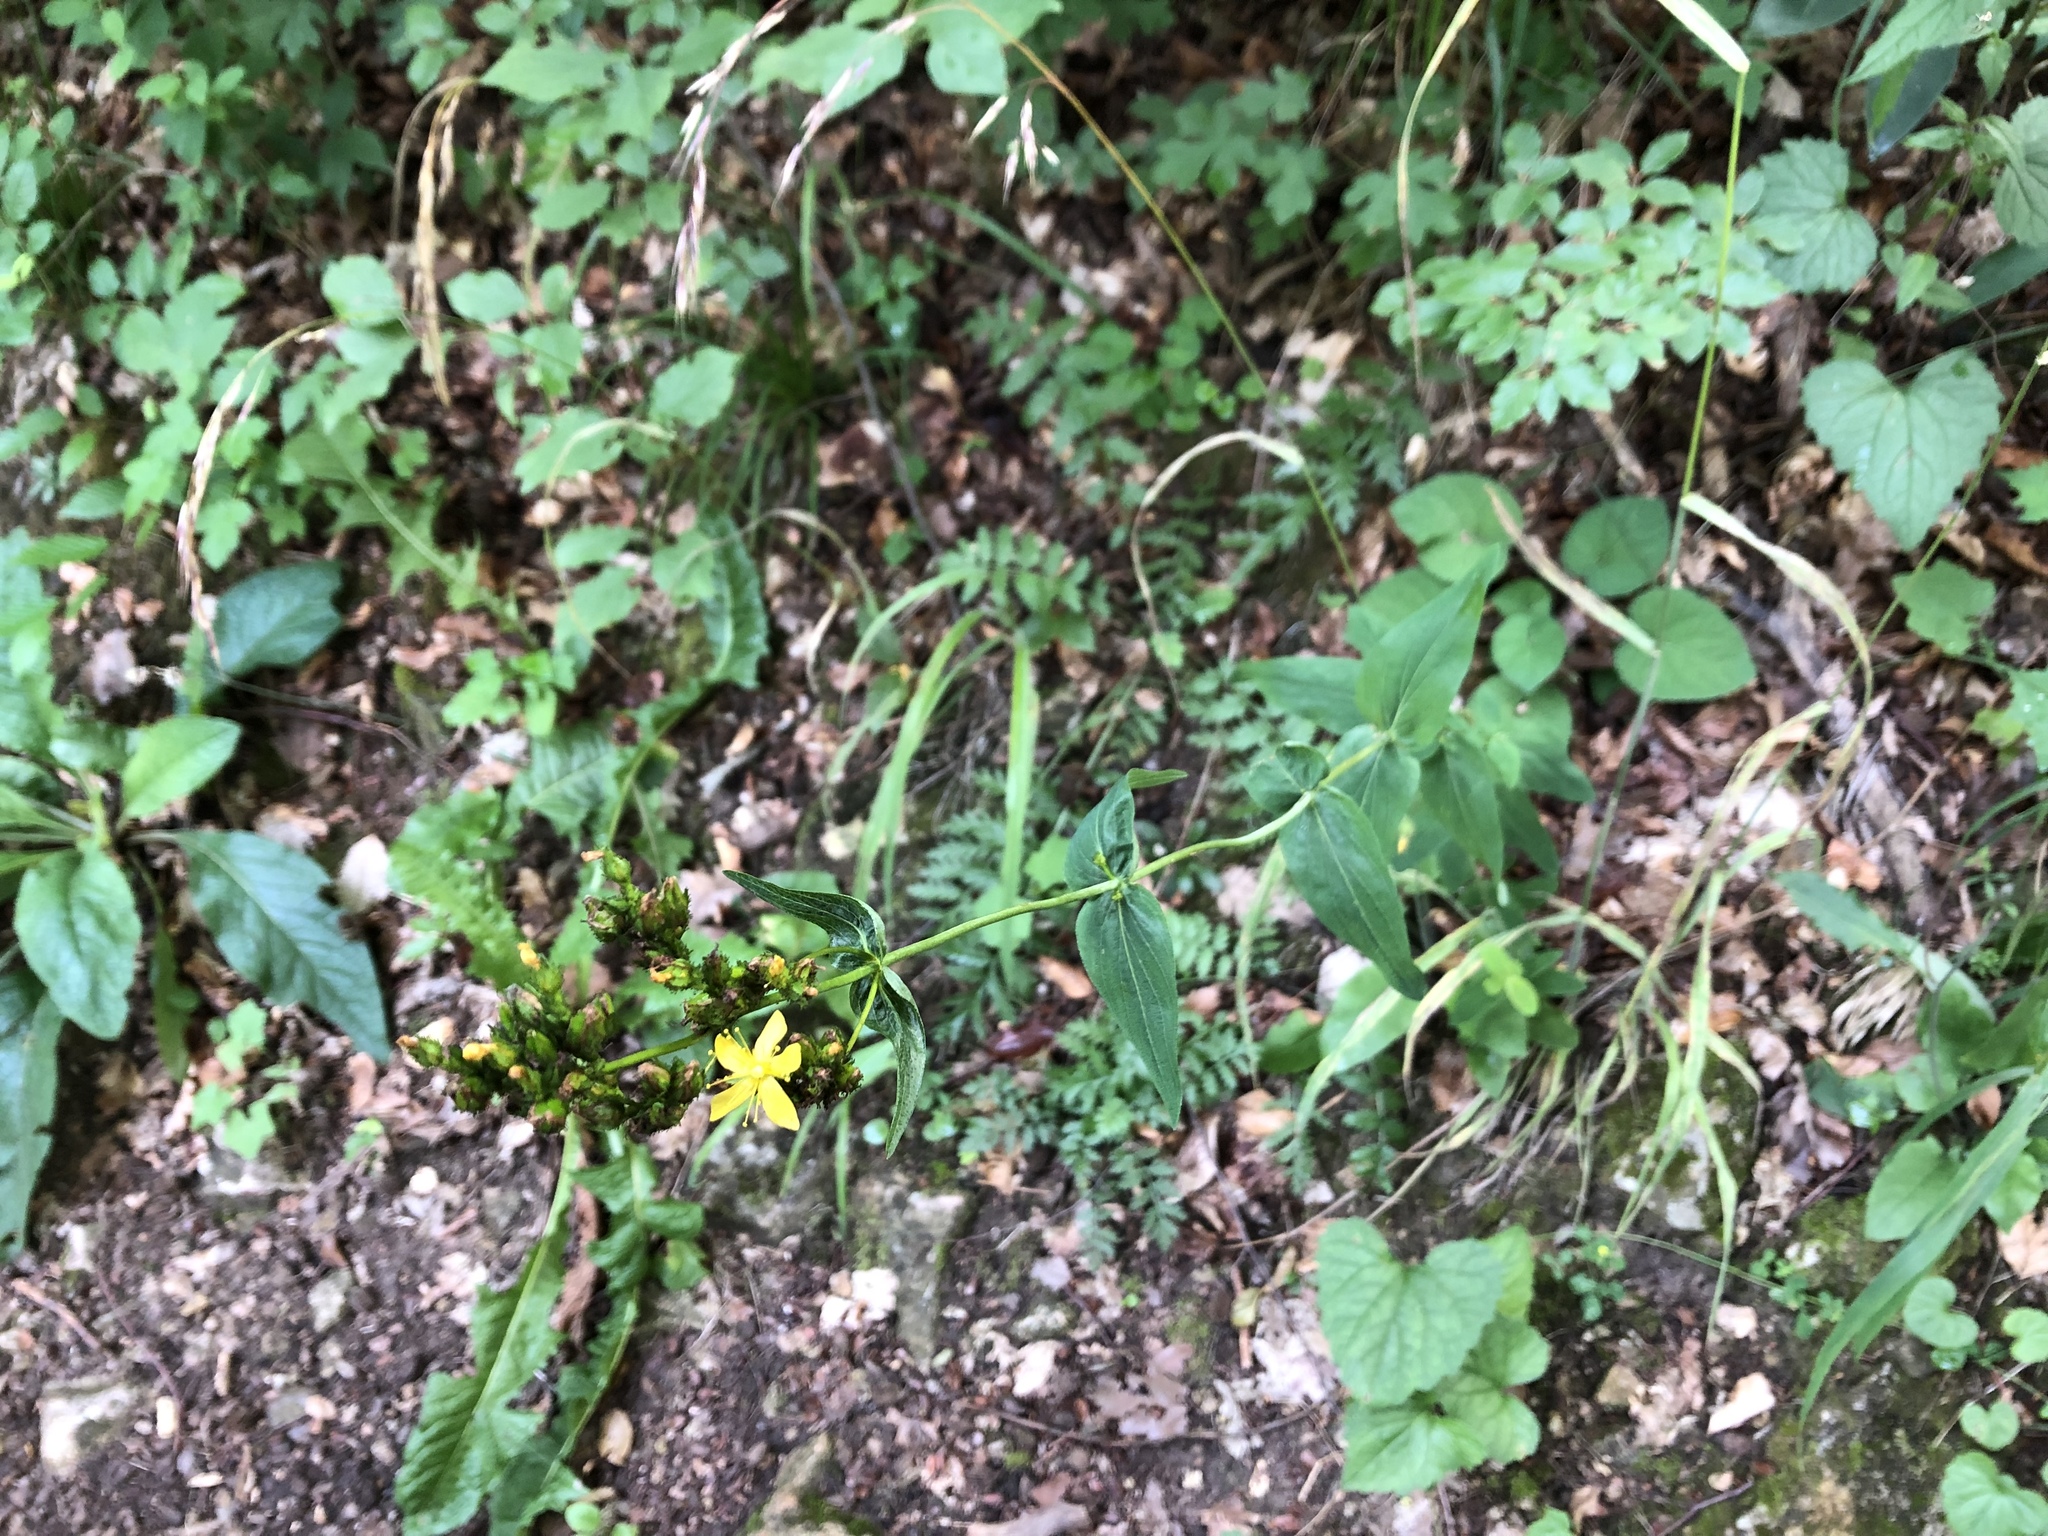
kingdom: Plantae
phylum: Tracheophyta
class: Magnoliopsida
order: Malpighiales
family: Hypericaceae
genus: Hypericum
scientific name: Hypericum montanum
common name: Pale st. john's-wort
